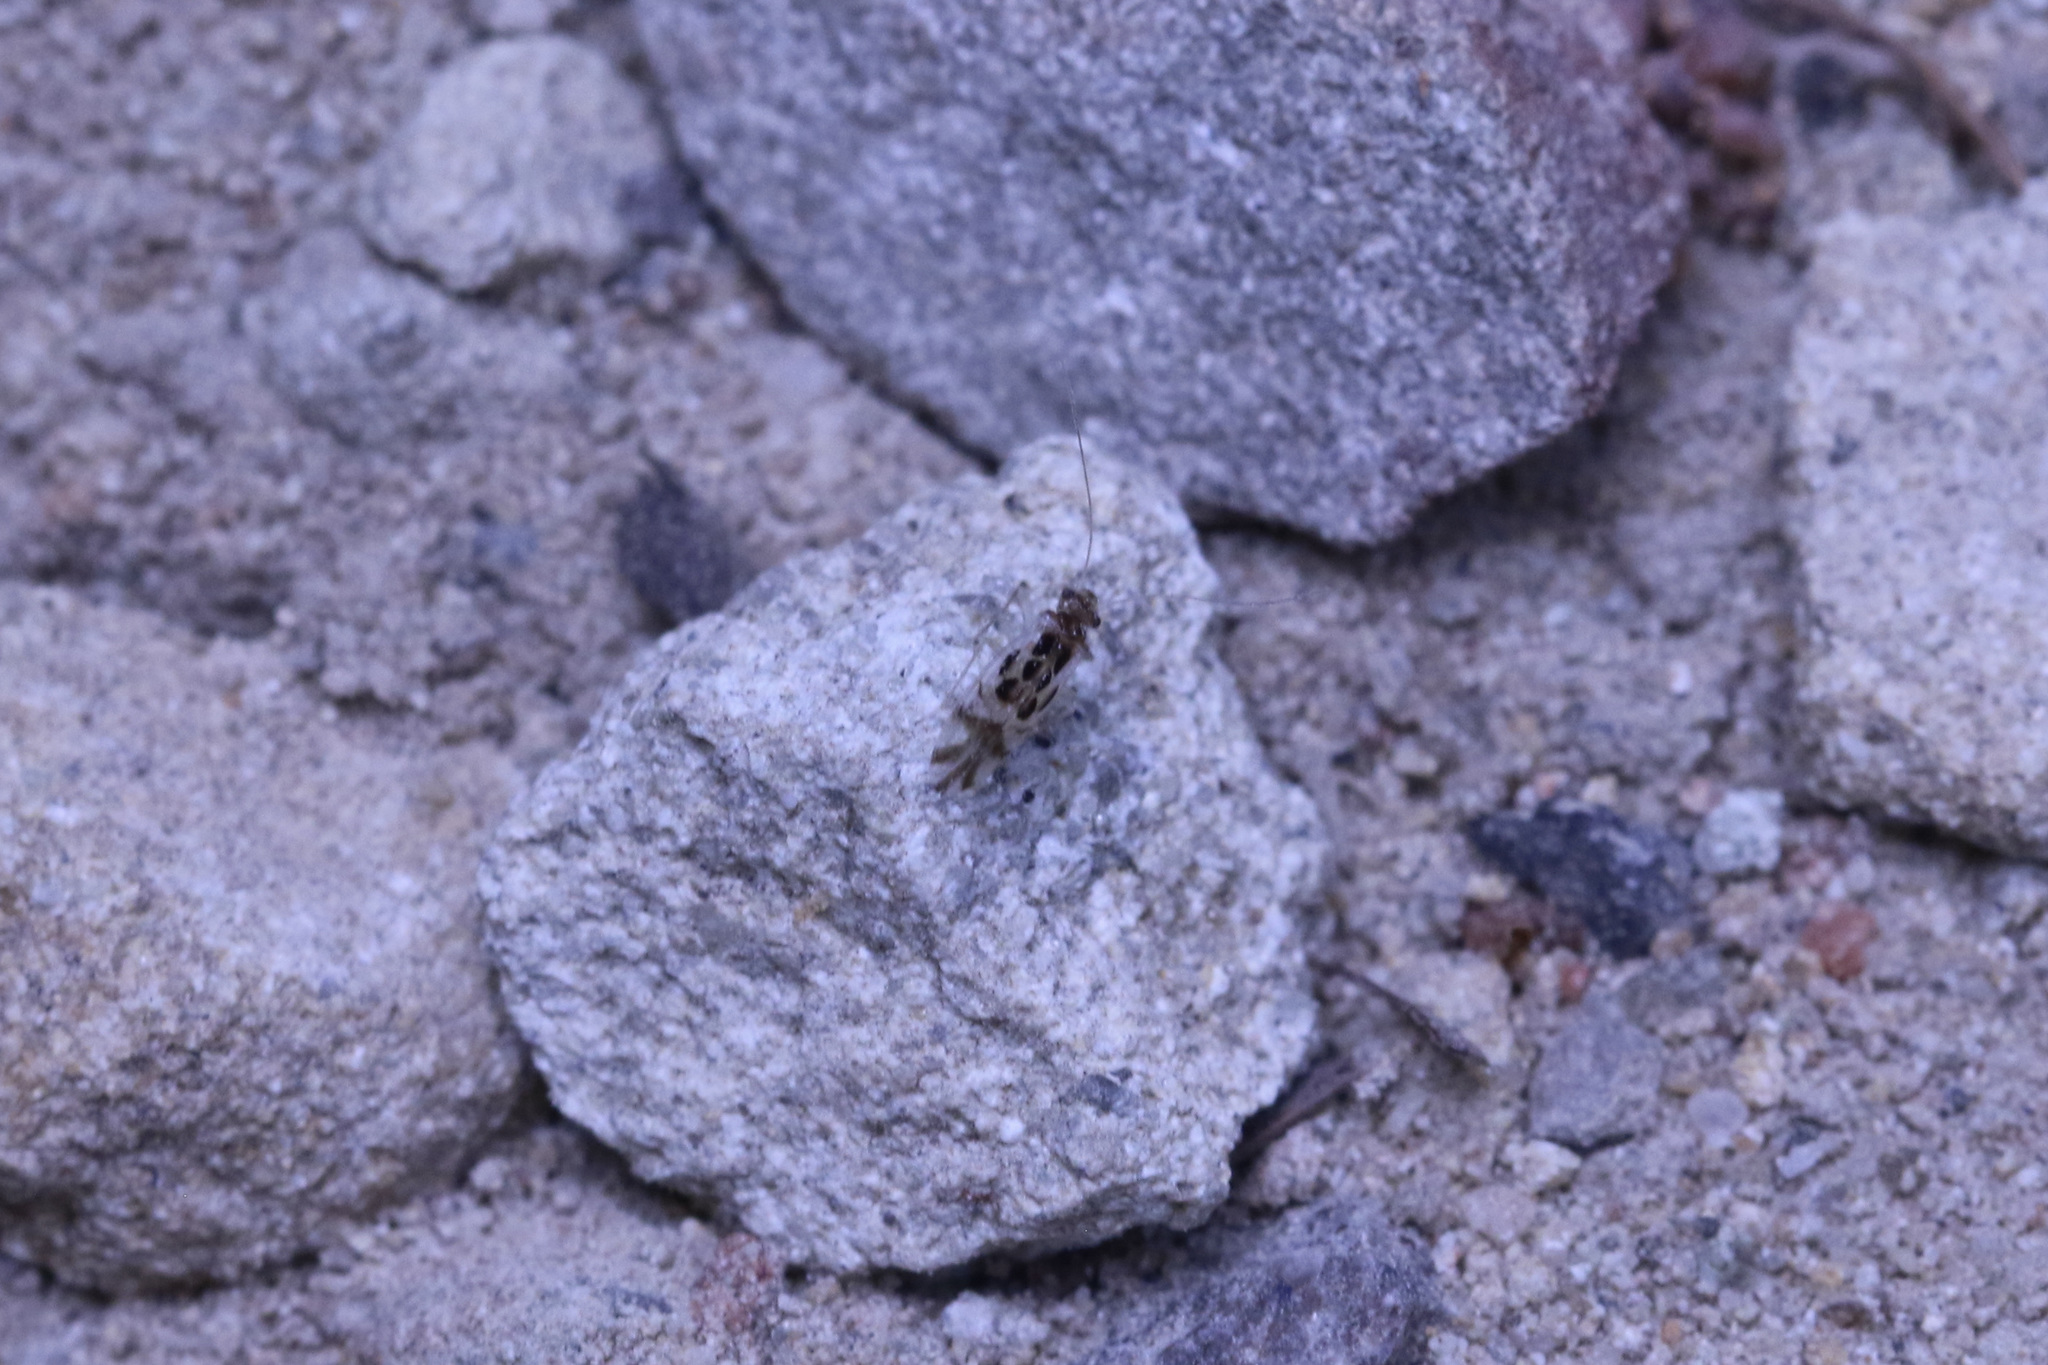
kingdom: Animalia
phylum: Arthropoda
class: Insecta
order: Psocodea
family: Stenopsocidae
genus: Graphopsocus
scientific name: Graphopsocus cruciatus
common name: Lizard bark louse
